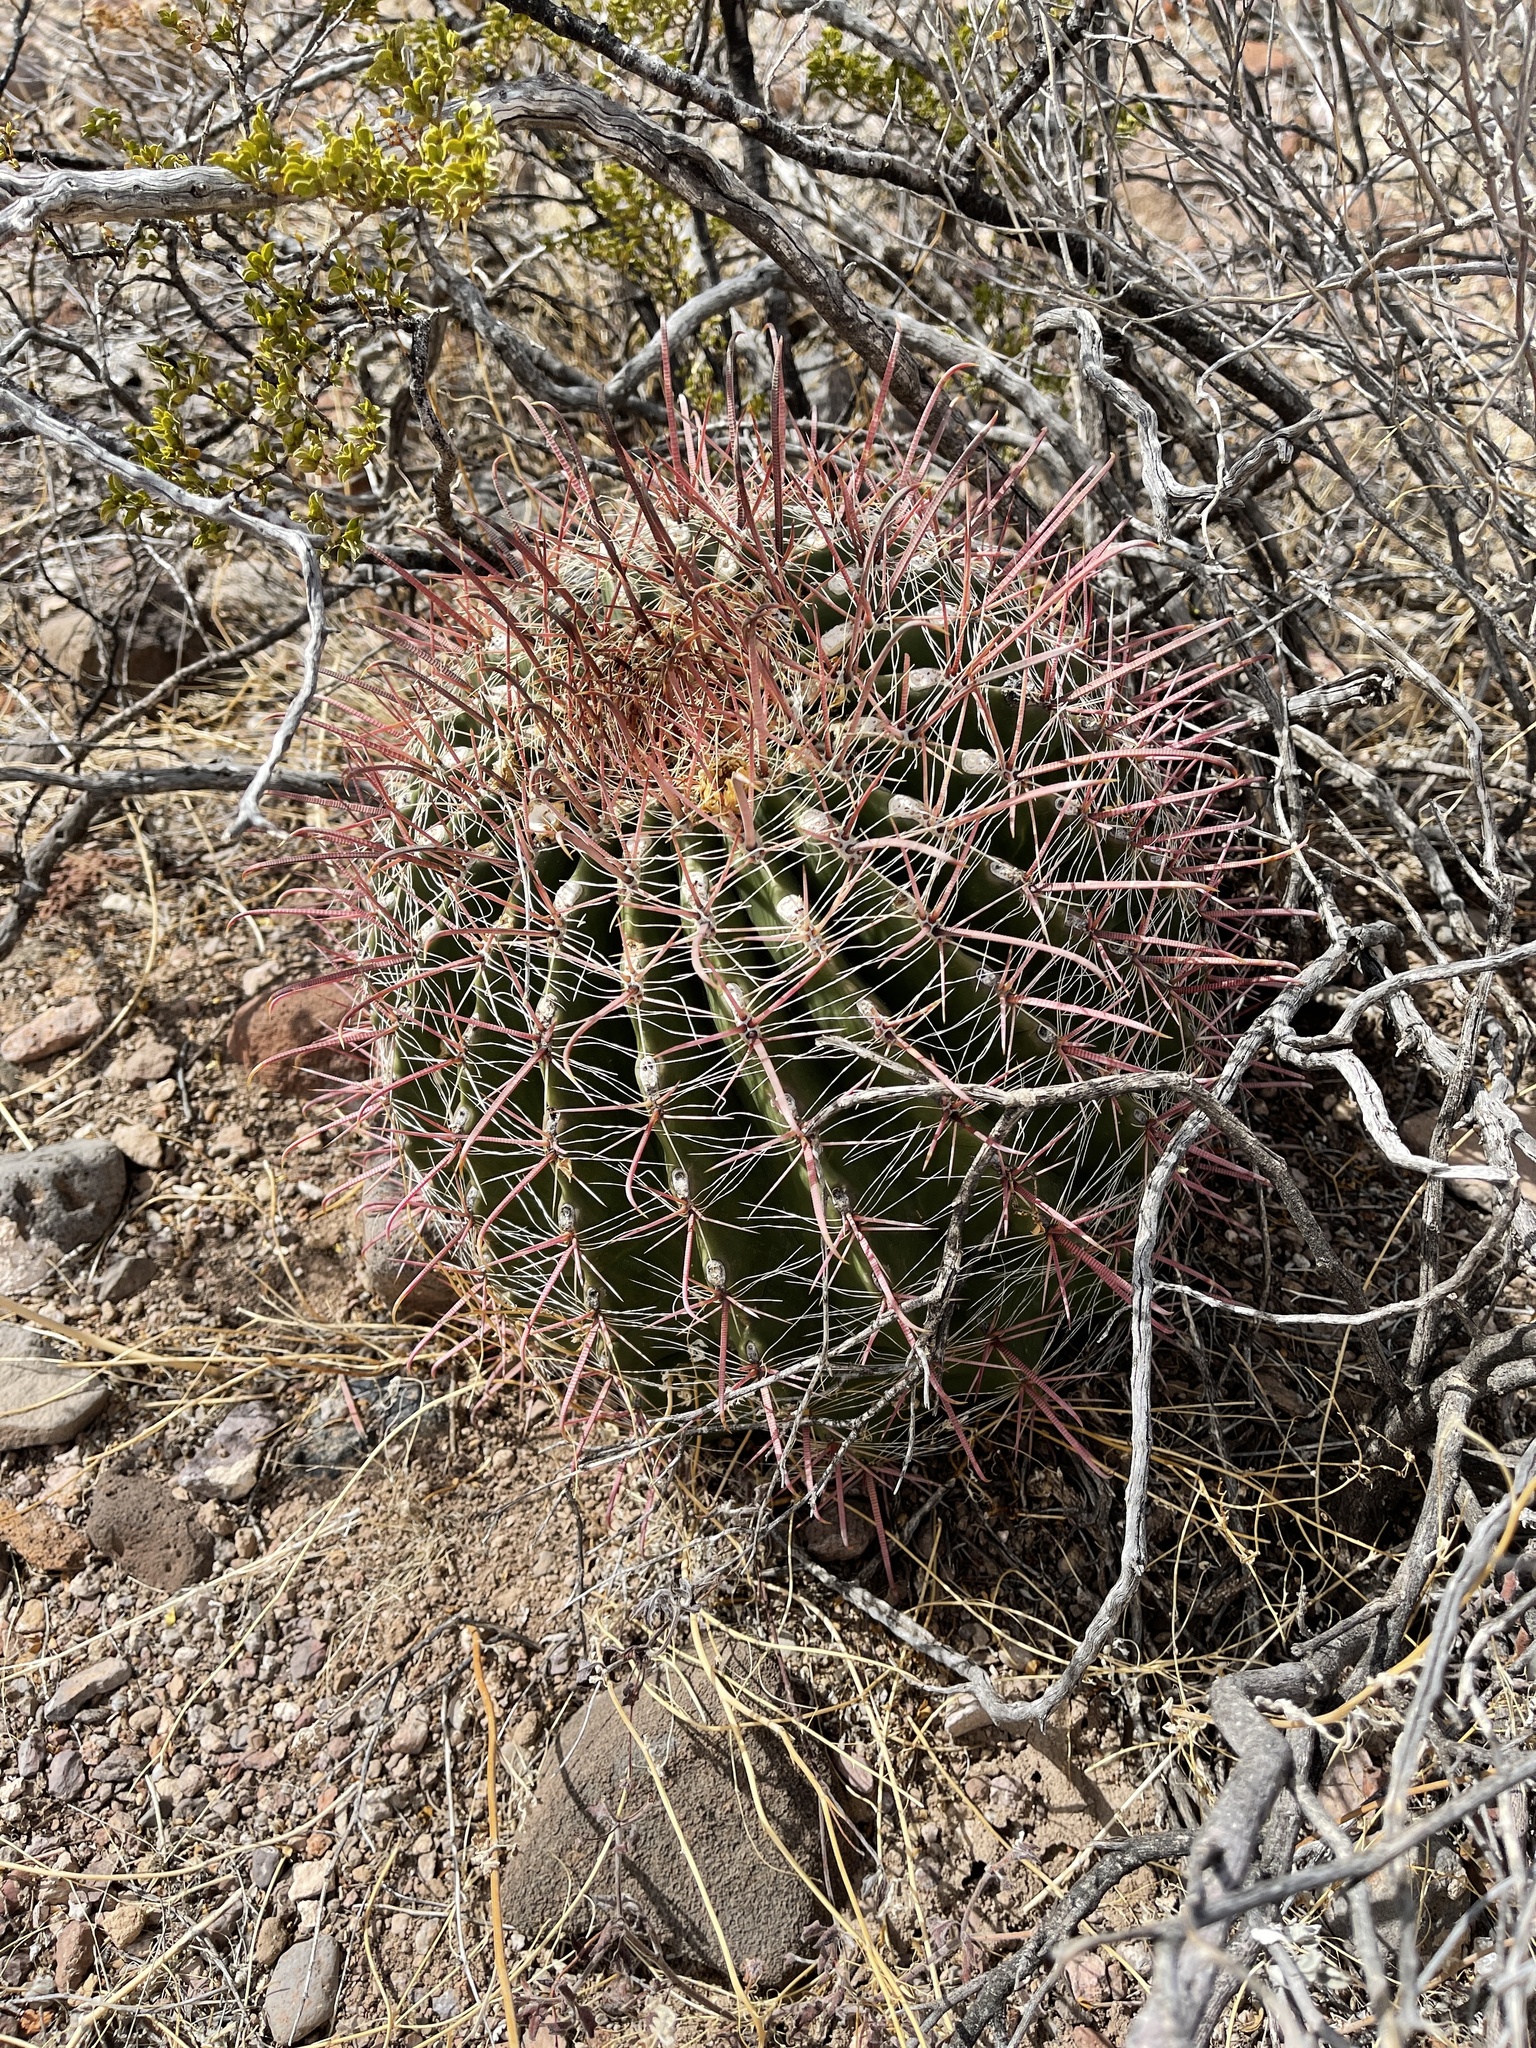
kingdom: Plantae
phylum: Tracheophyta
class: Magnoliopsida
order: Caryophyllales
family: Cactaceae
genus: Ferocactus
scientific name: Ferocactus wislizeni
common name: Candy barrel cactus
